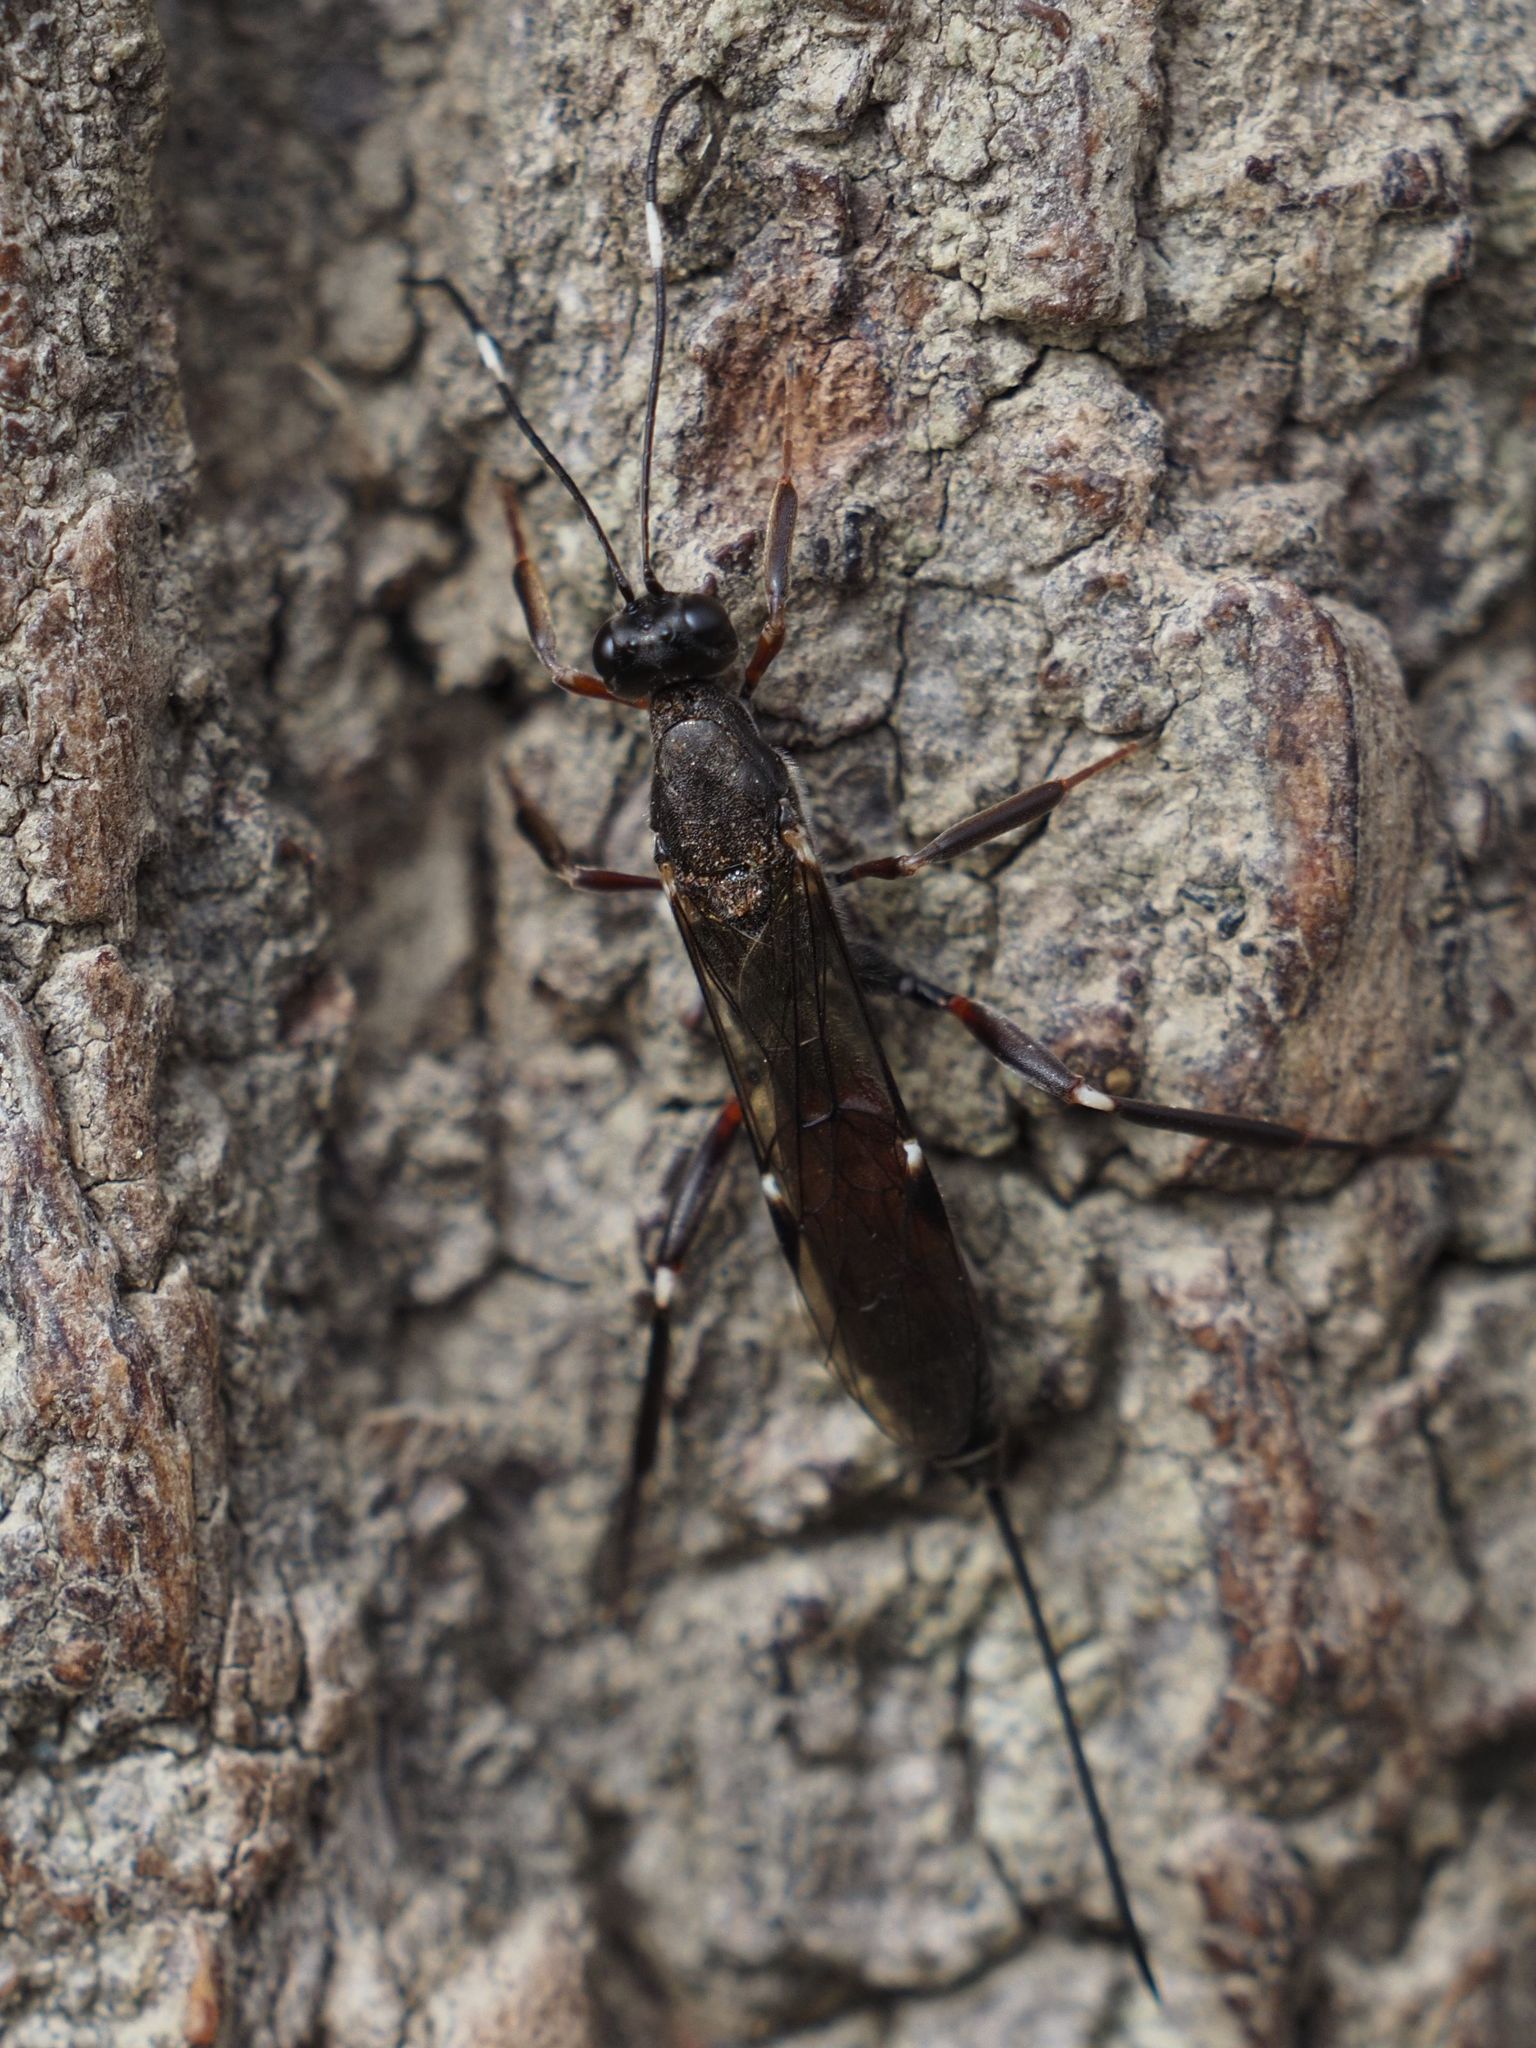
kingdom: Animalia
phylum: Arthropoda
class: Insecta
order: Hymenoptera
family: Ichneumonidae
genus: Xorides
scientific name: Xorides gracilicornis
